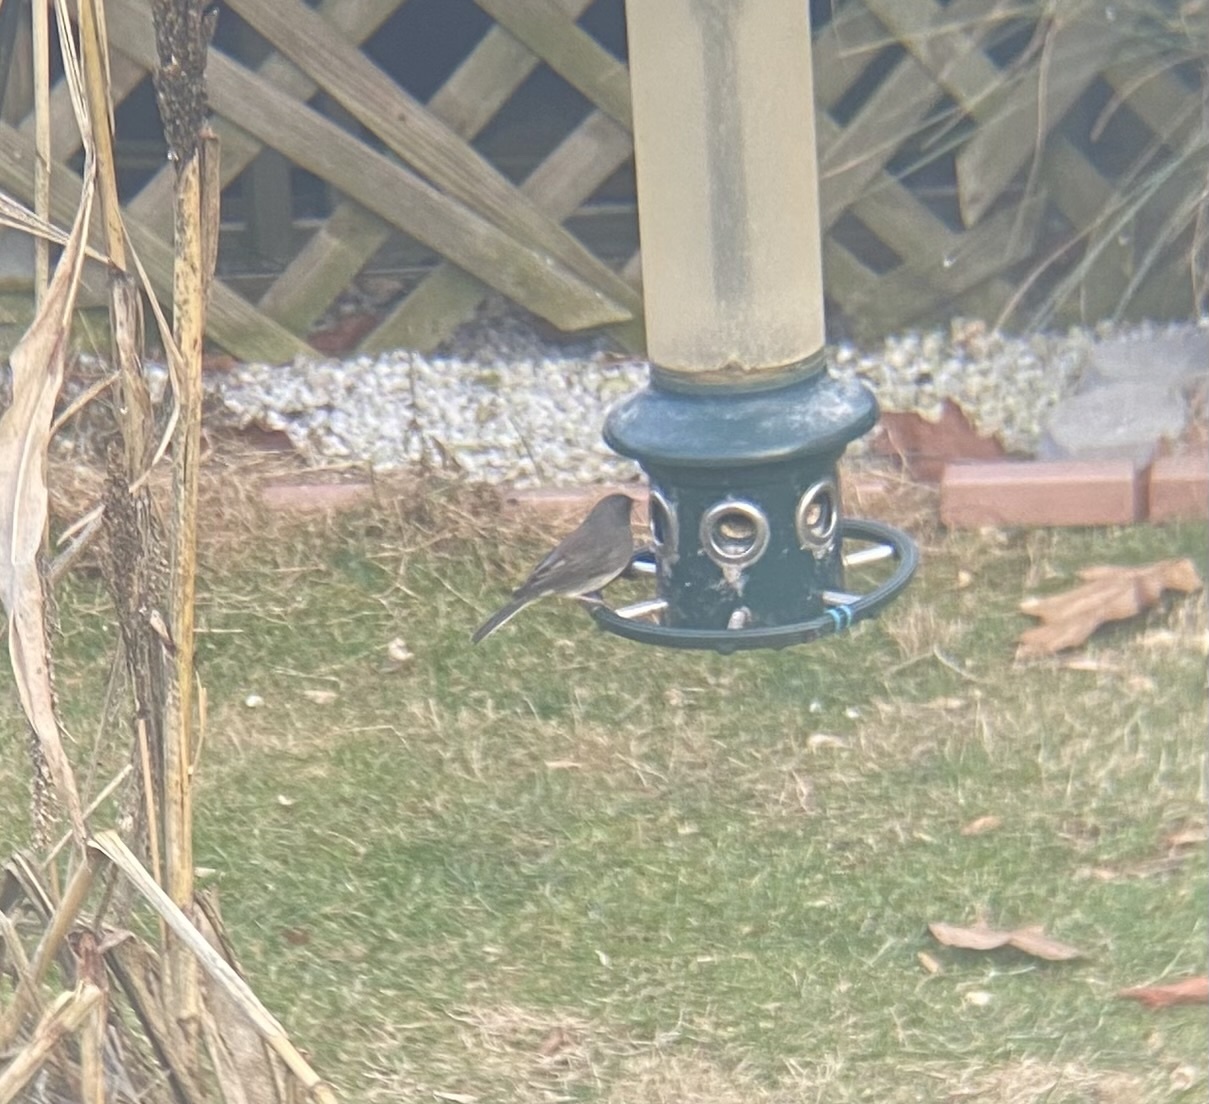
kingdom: Animalia
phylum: Chordata
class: Aves
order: Passeriformes
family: Passerellidae
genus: Junco
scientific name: Junco hyemalis
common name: Dark-eyed junco
